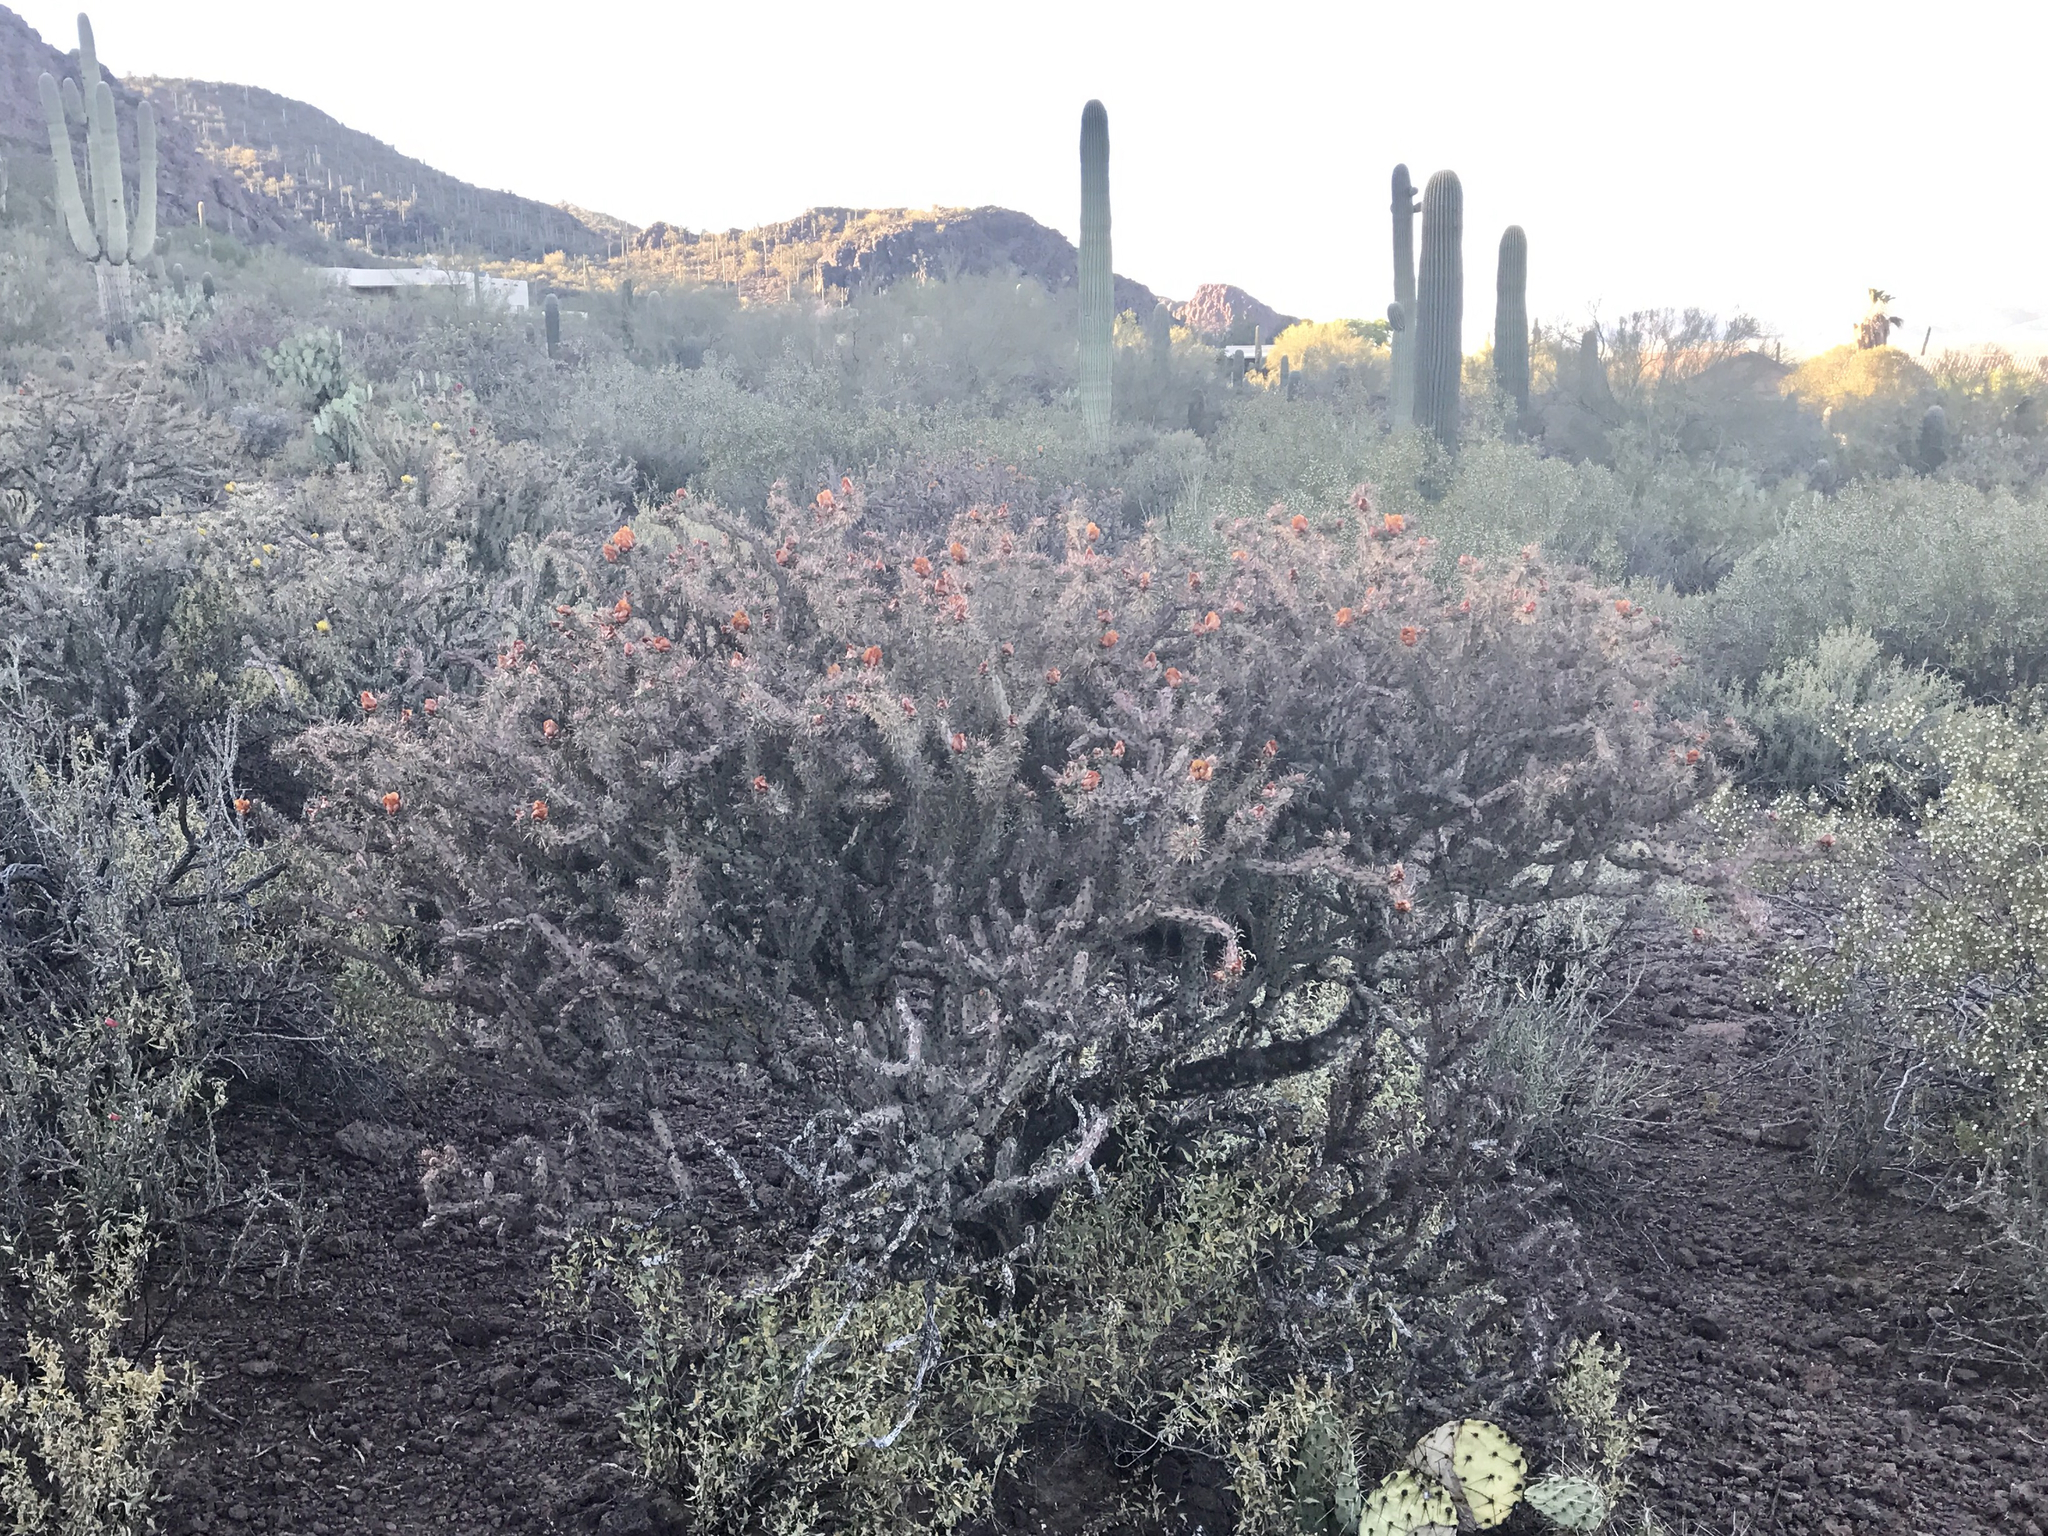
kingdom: Plantae
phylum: Tracheophyta
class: Magnoliopsida
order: Caryophyllales
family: Cactaceae
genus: Cylindropuntia
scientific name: Cylindropuntia thurberi
